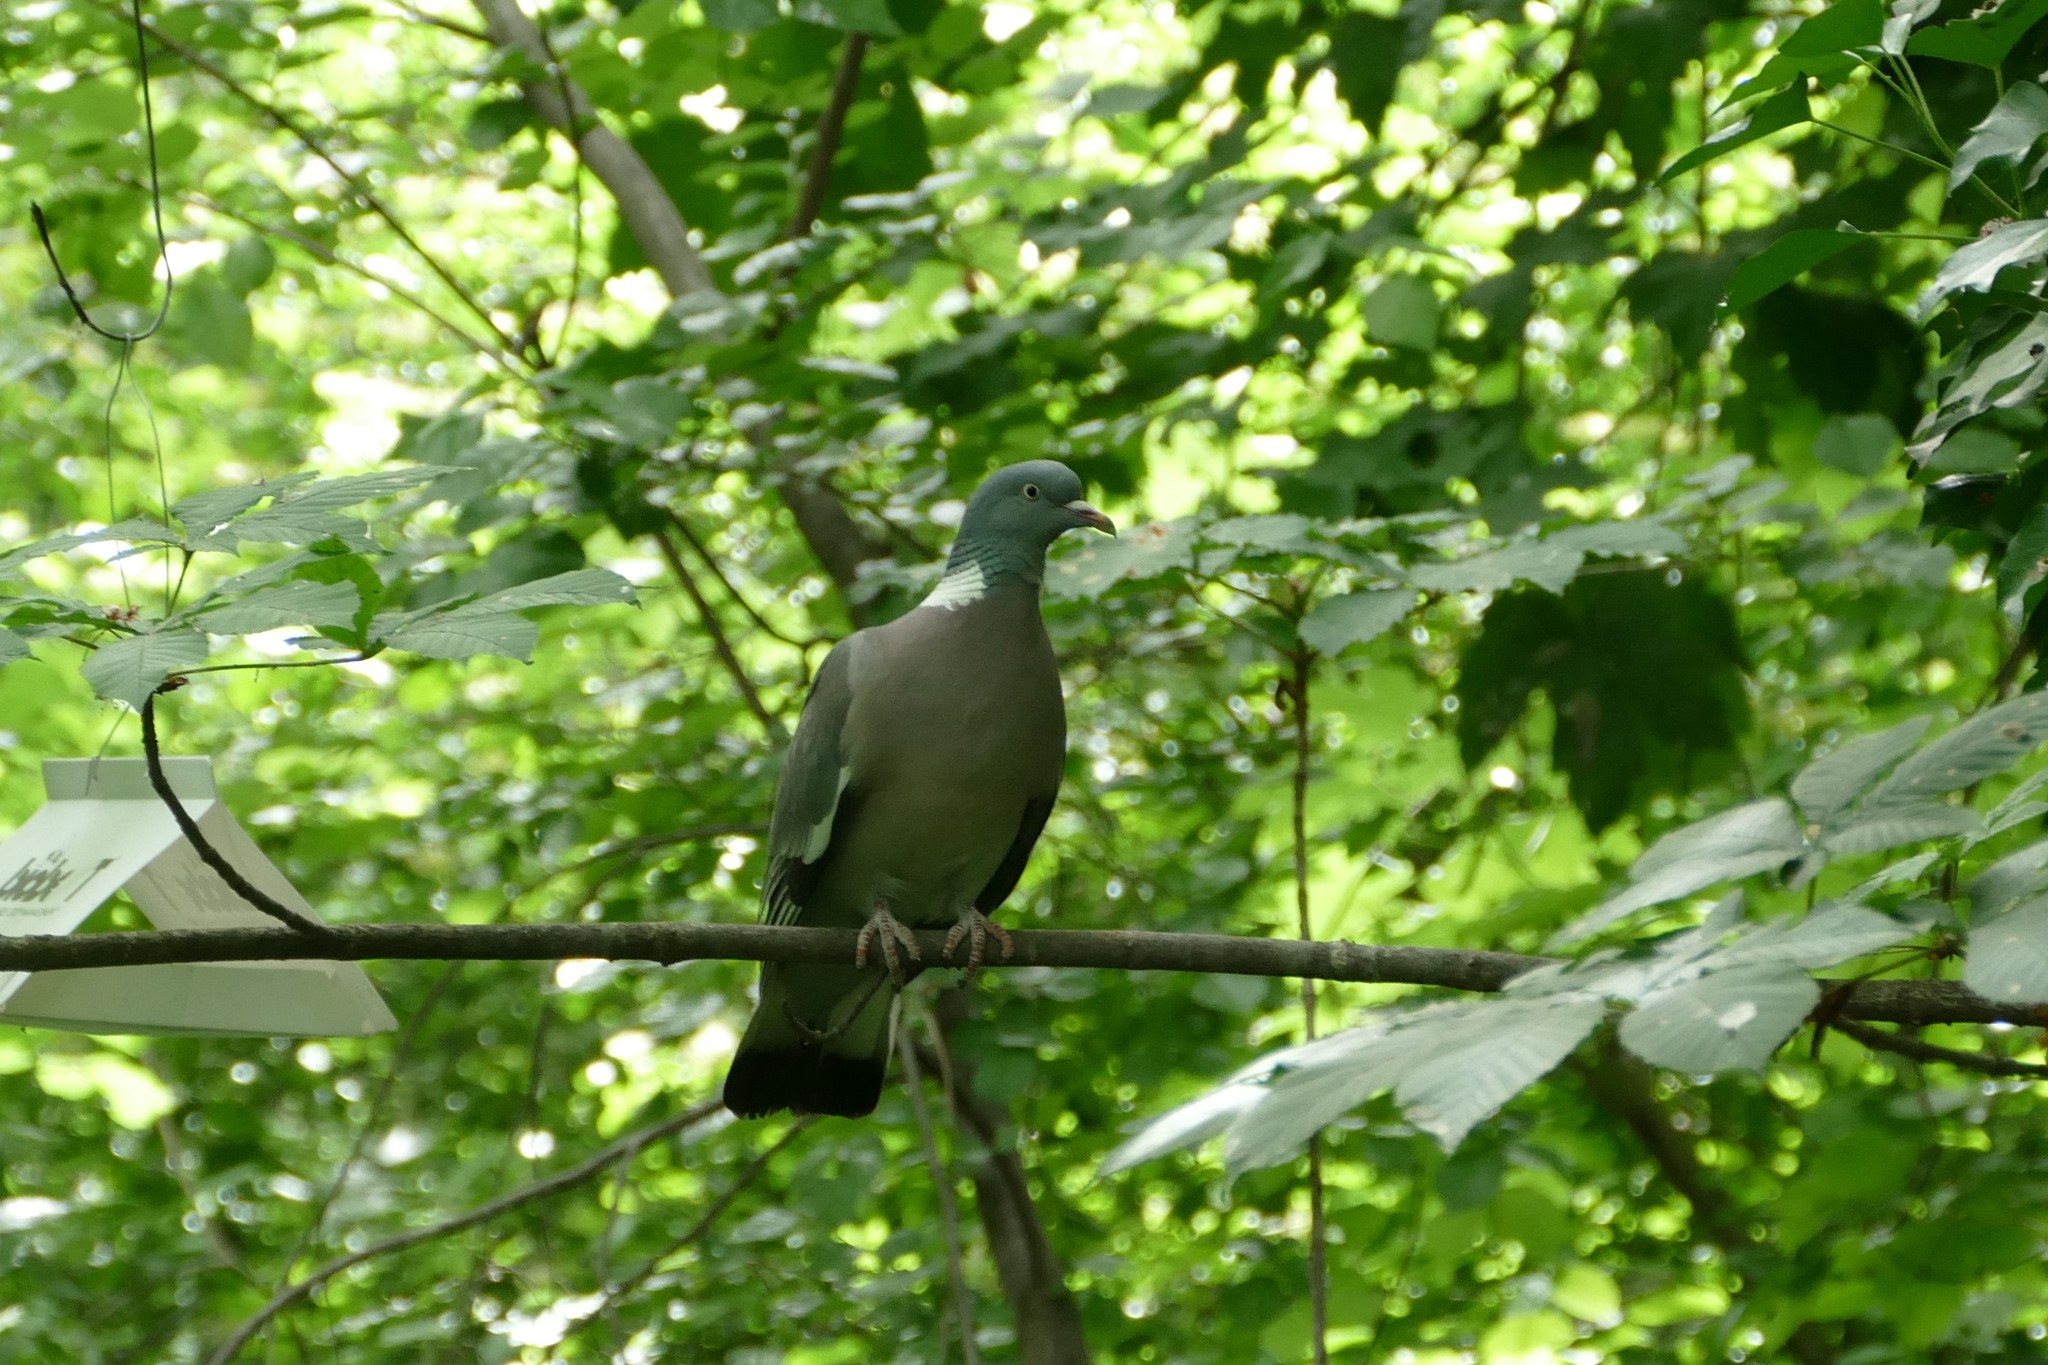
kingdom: Animalia
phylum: Chordata
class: Aves
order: Columbiformes
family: Columbidae
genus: Columba
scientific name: Columba palumbus
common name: Common wood pigeon
